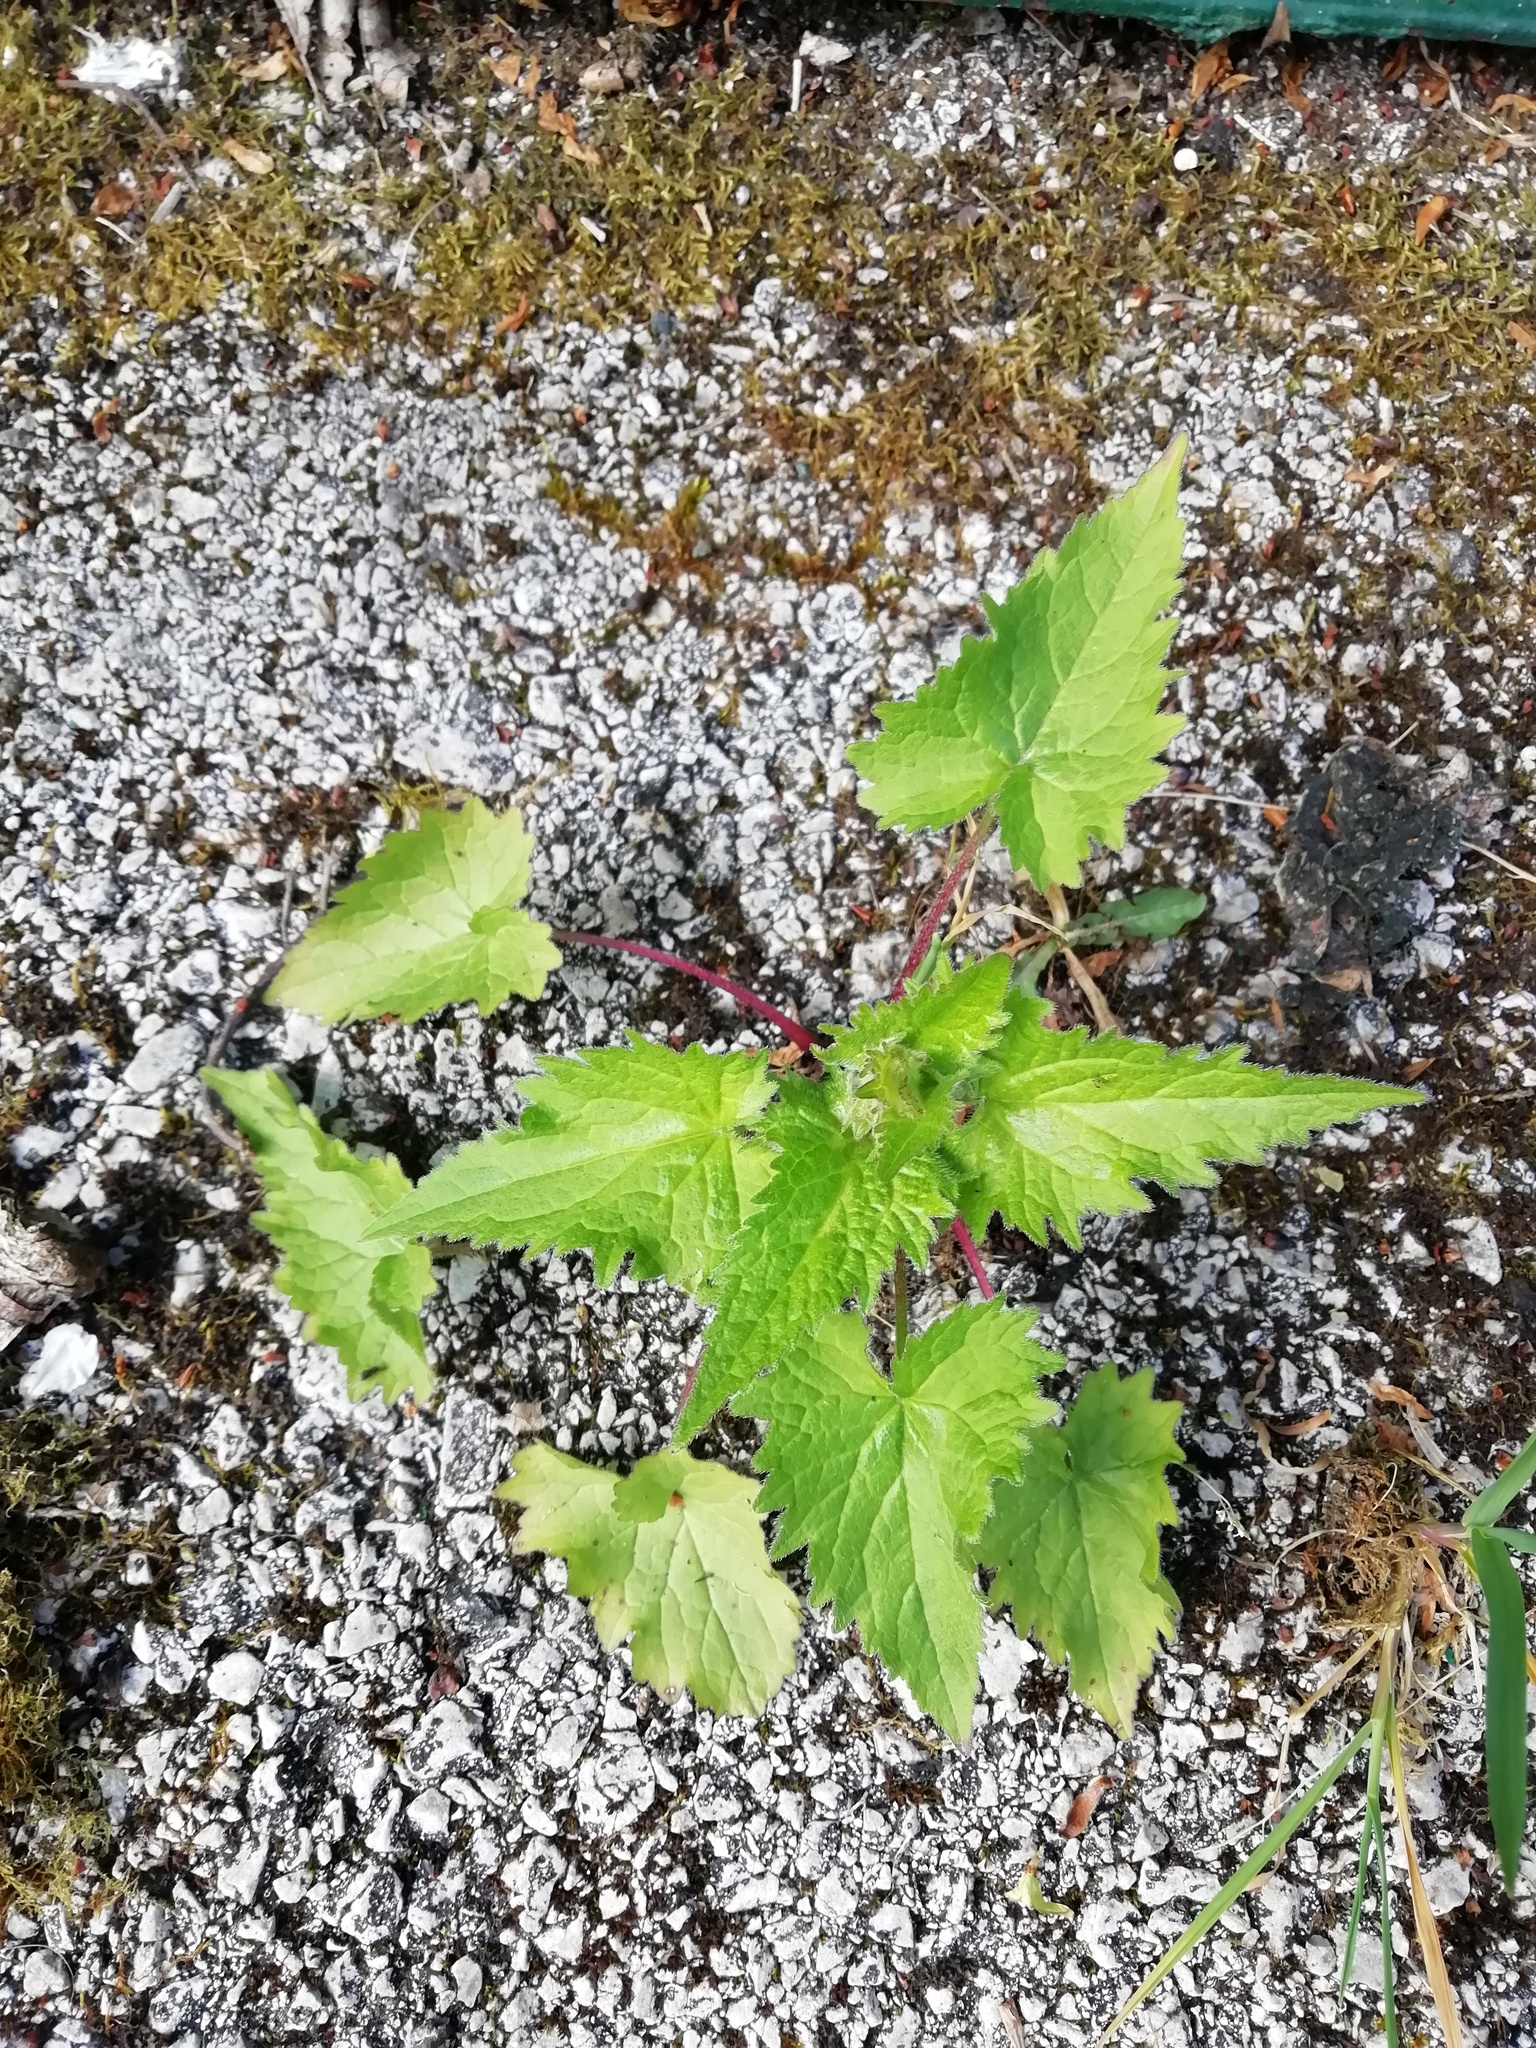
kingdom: Plantae
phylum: Tracheophyta
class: Magnoliopsida
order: Asterales
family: Campanulaceae
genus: Campanula
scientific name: Campanula trachelium
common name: Nettle-leaved bellflower
